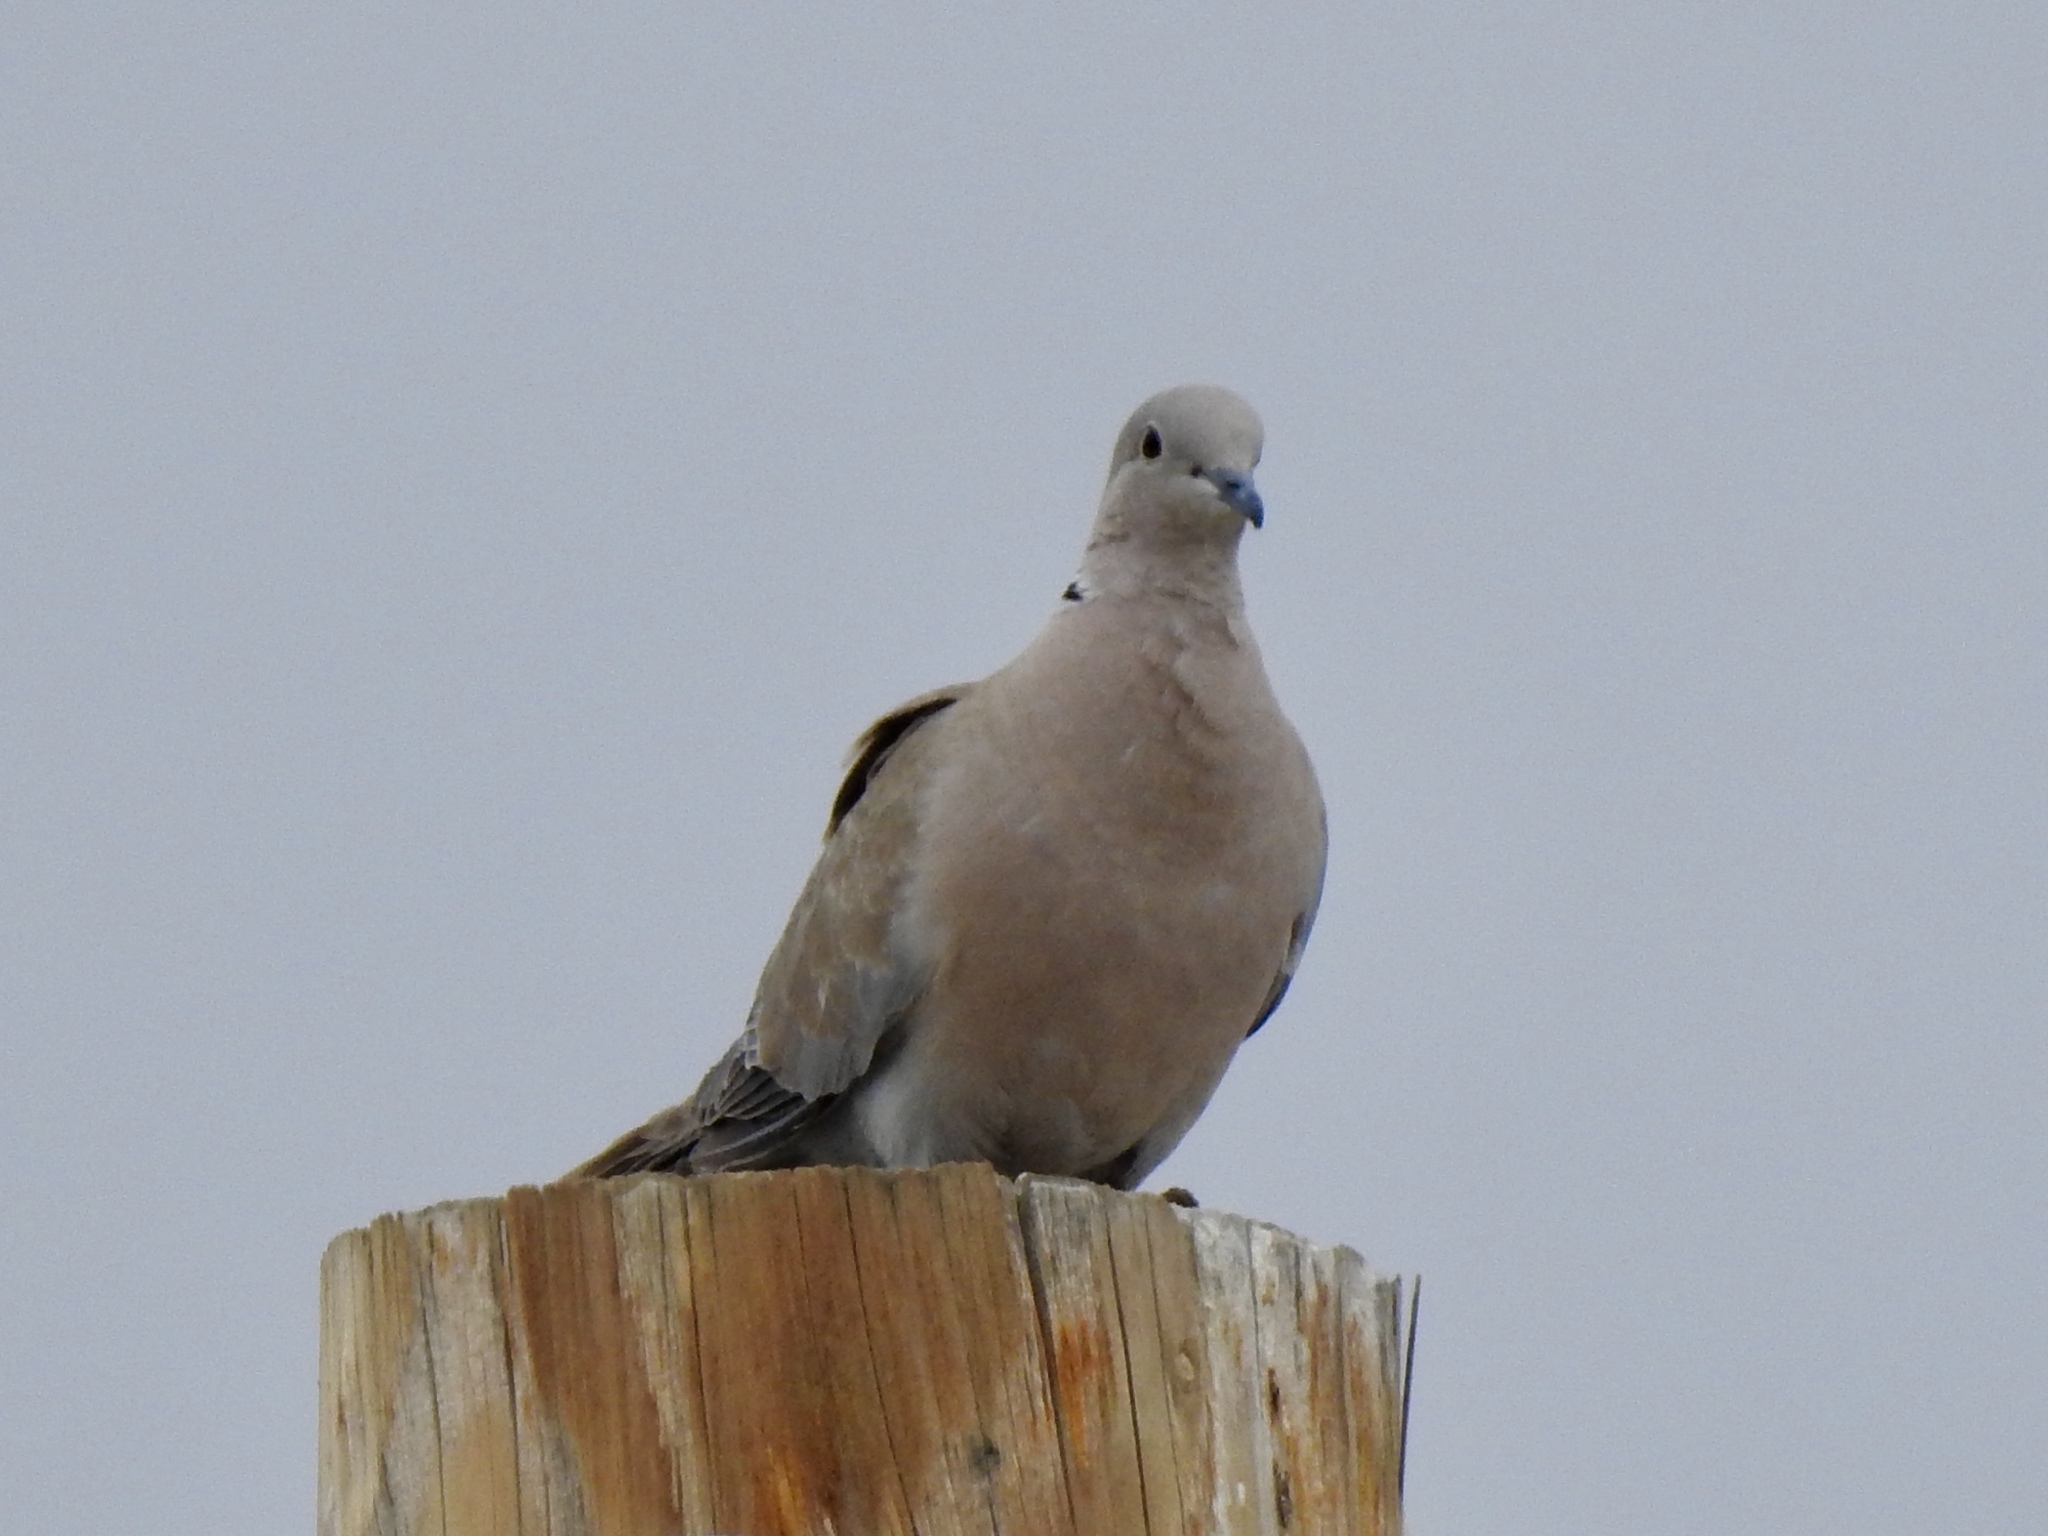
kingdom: Animalia
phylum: Chordata
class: Aves
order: Columbiformes
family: Columbidae
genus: Streptopelia
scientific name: Streptopelia decaocto
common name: Eurasian collared dove
